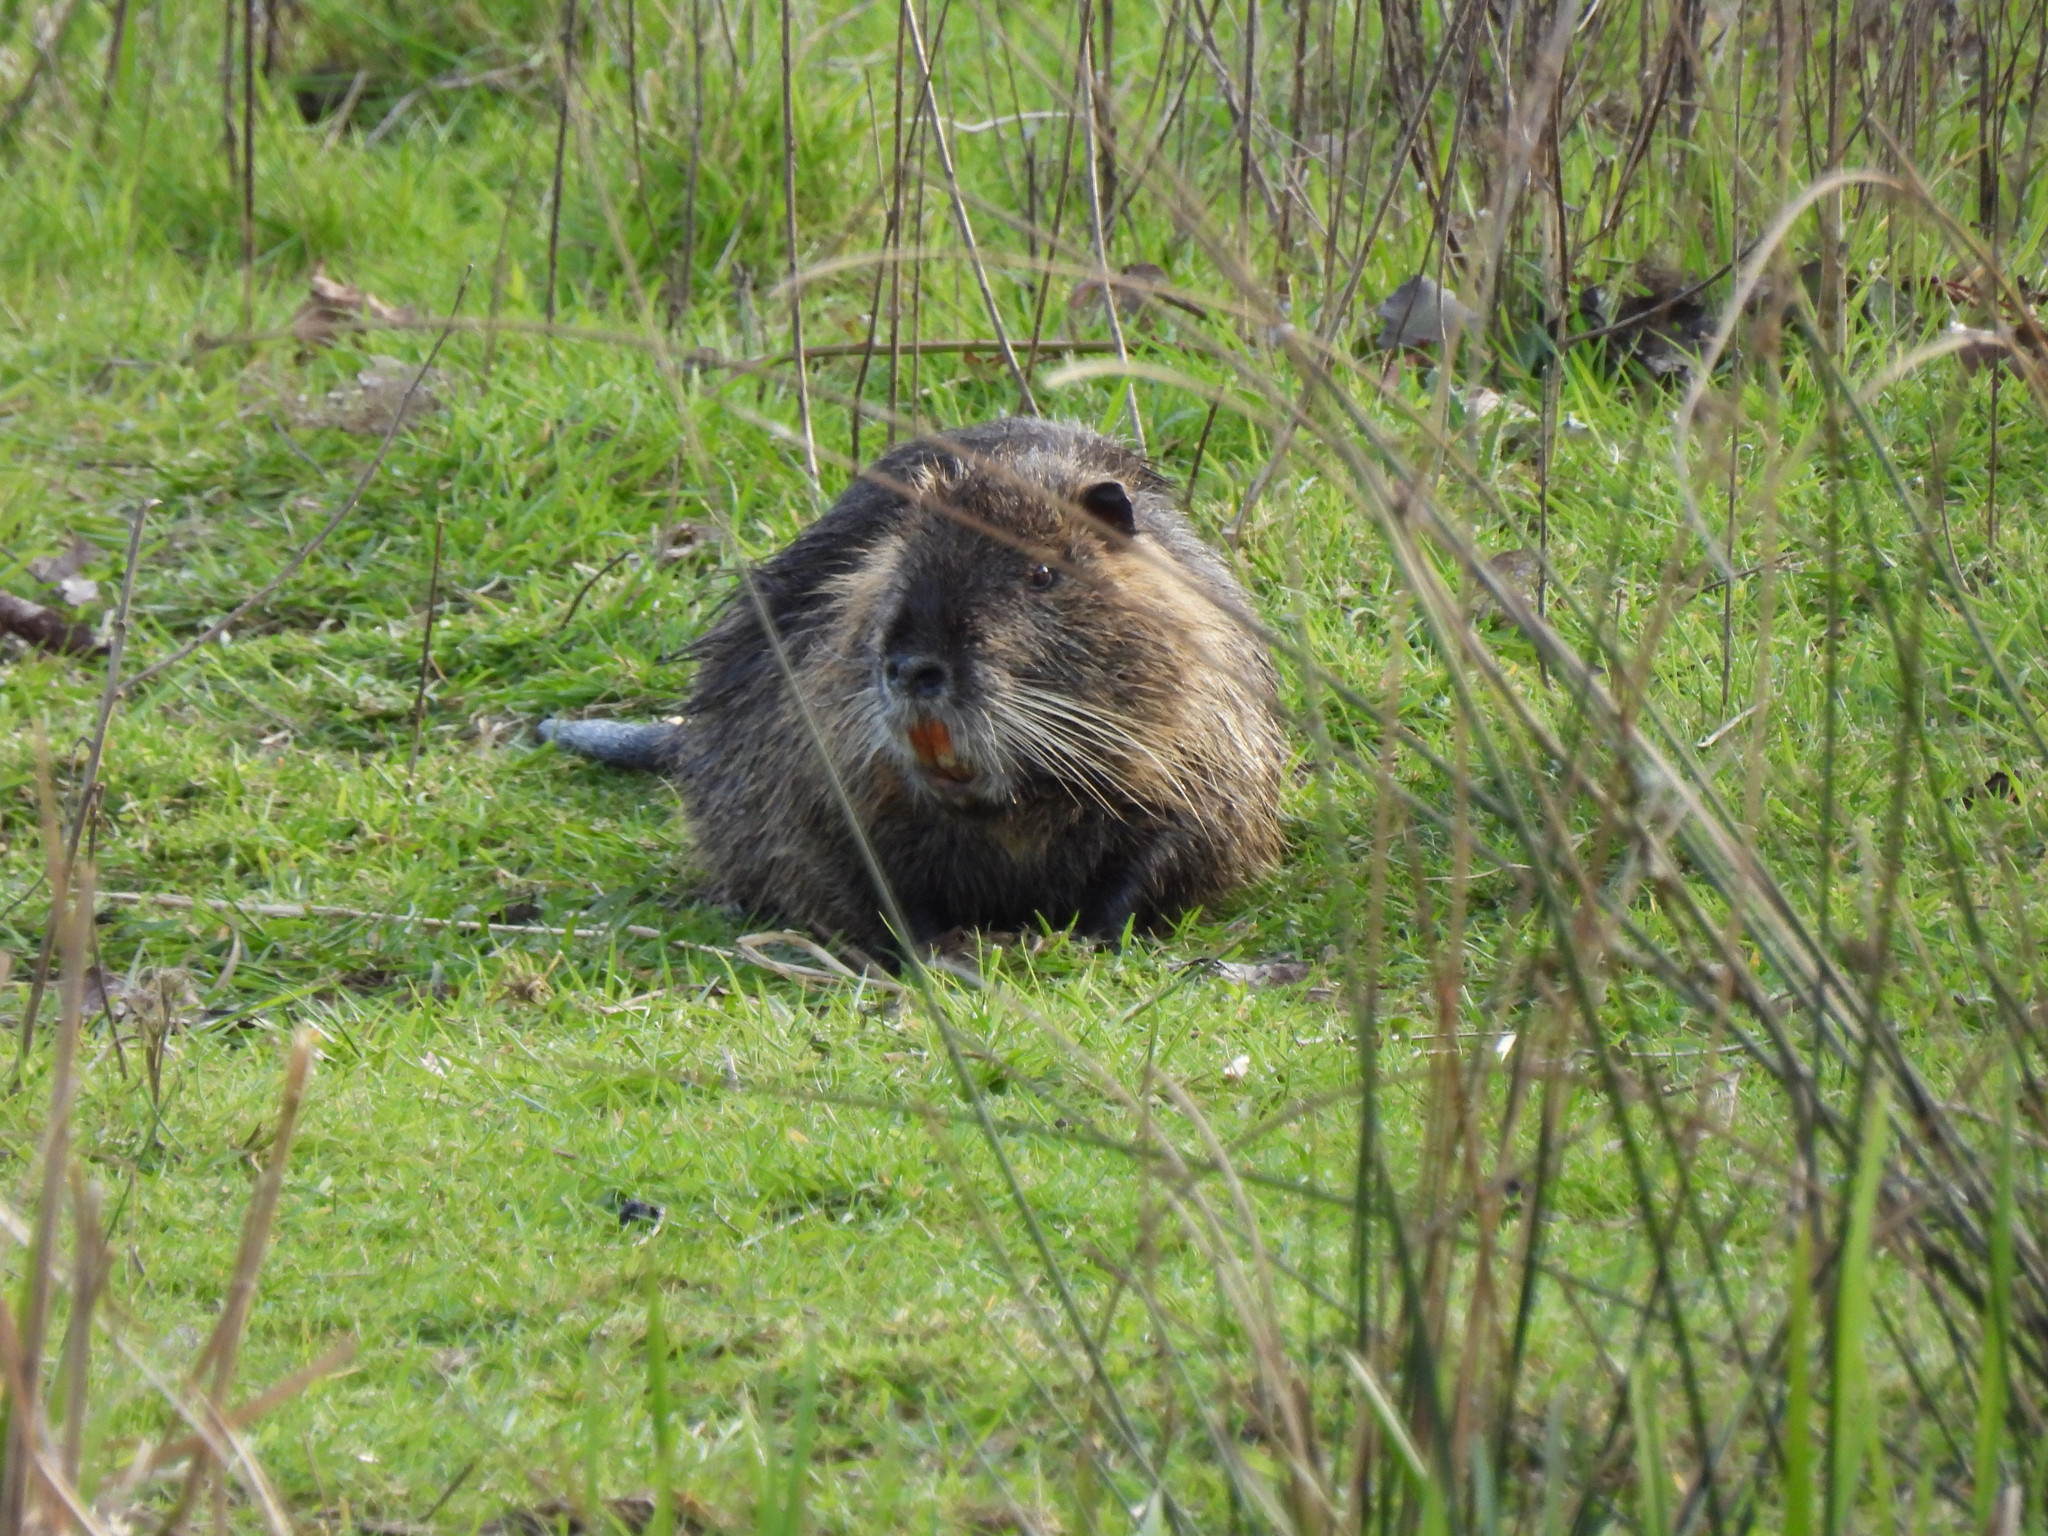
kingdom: Animalia
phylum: Chordata
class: Mammalia
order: Rodentia
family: Myocastoridae
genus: Myocastor
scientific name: Myocastor coypus
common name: Coypu
